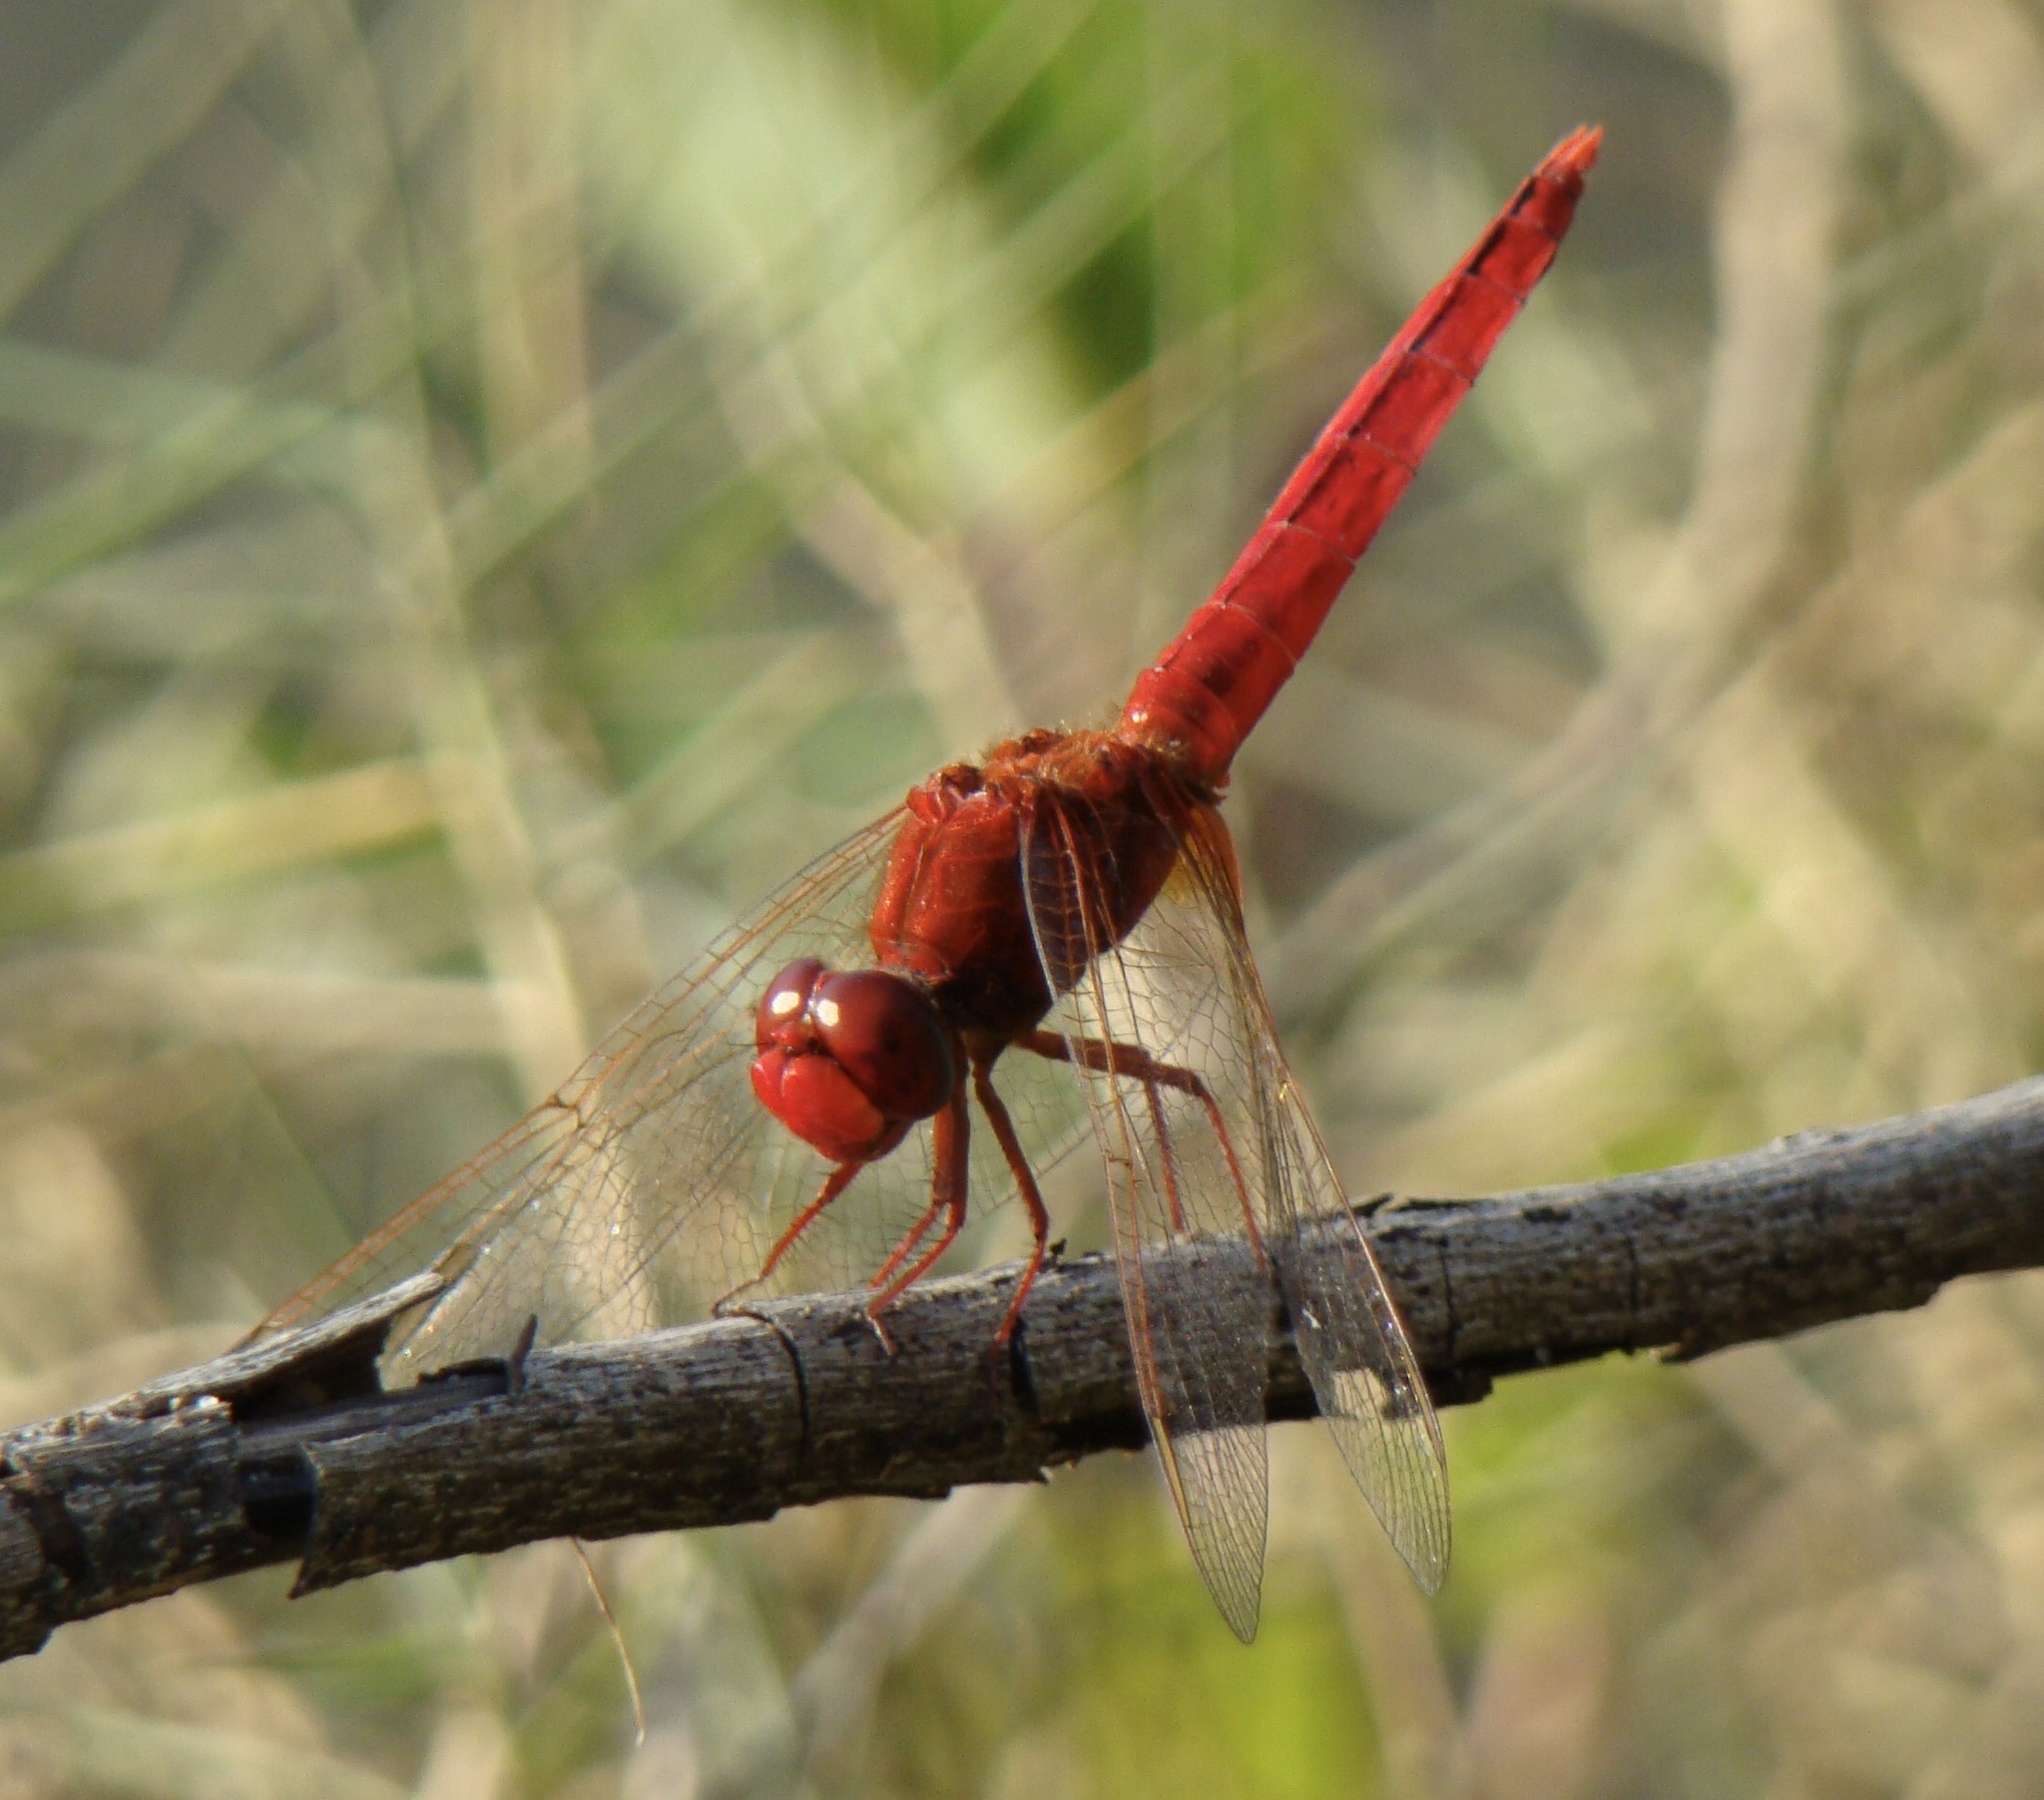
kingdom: Animalia
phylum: Arthropoda
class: Insecta
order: Odonata
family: Libellulidae
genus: Crocothemis
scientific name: Crocothemis erythraea
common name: Scarlet dragonfly
